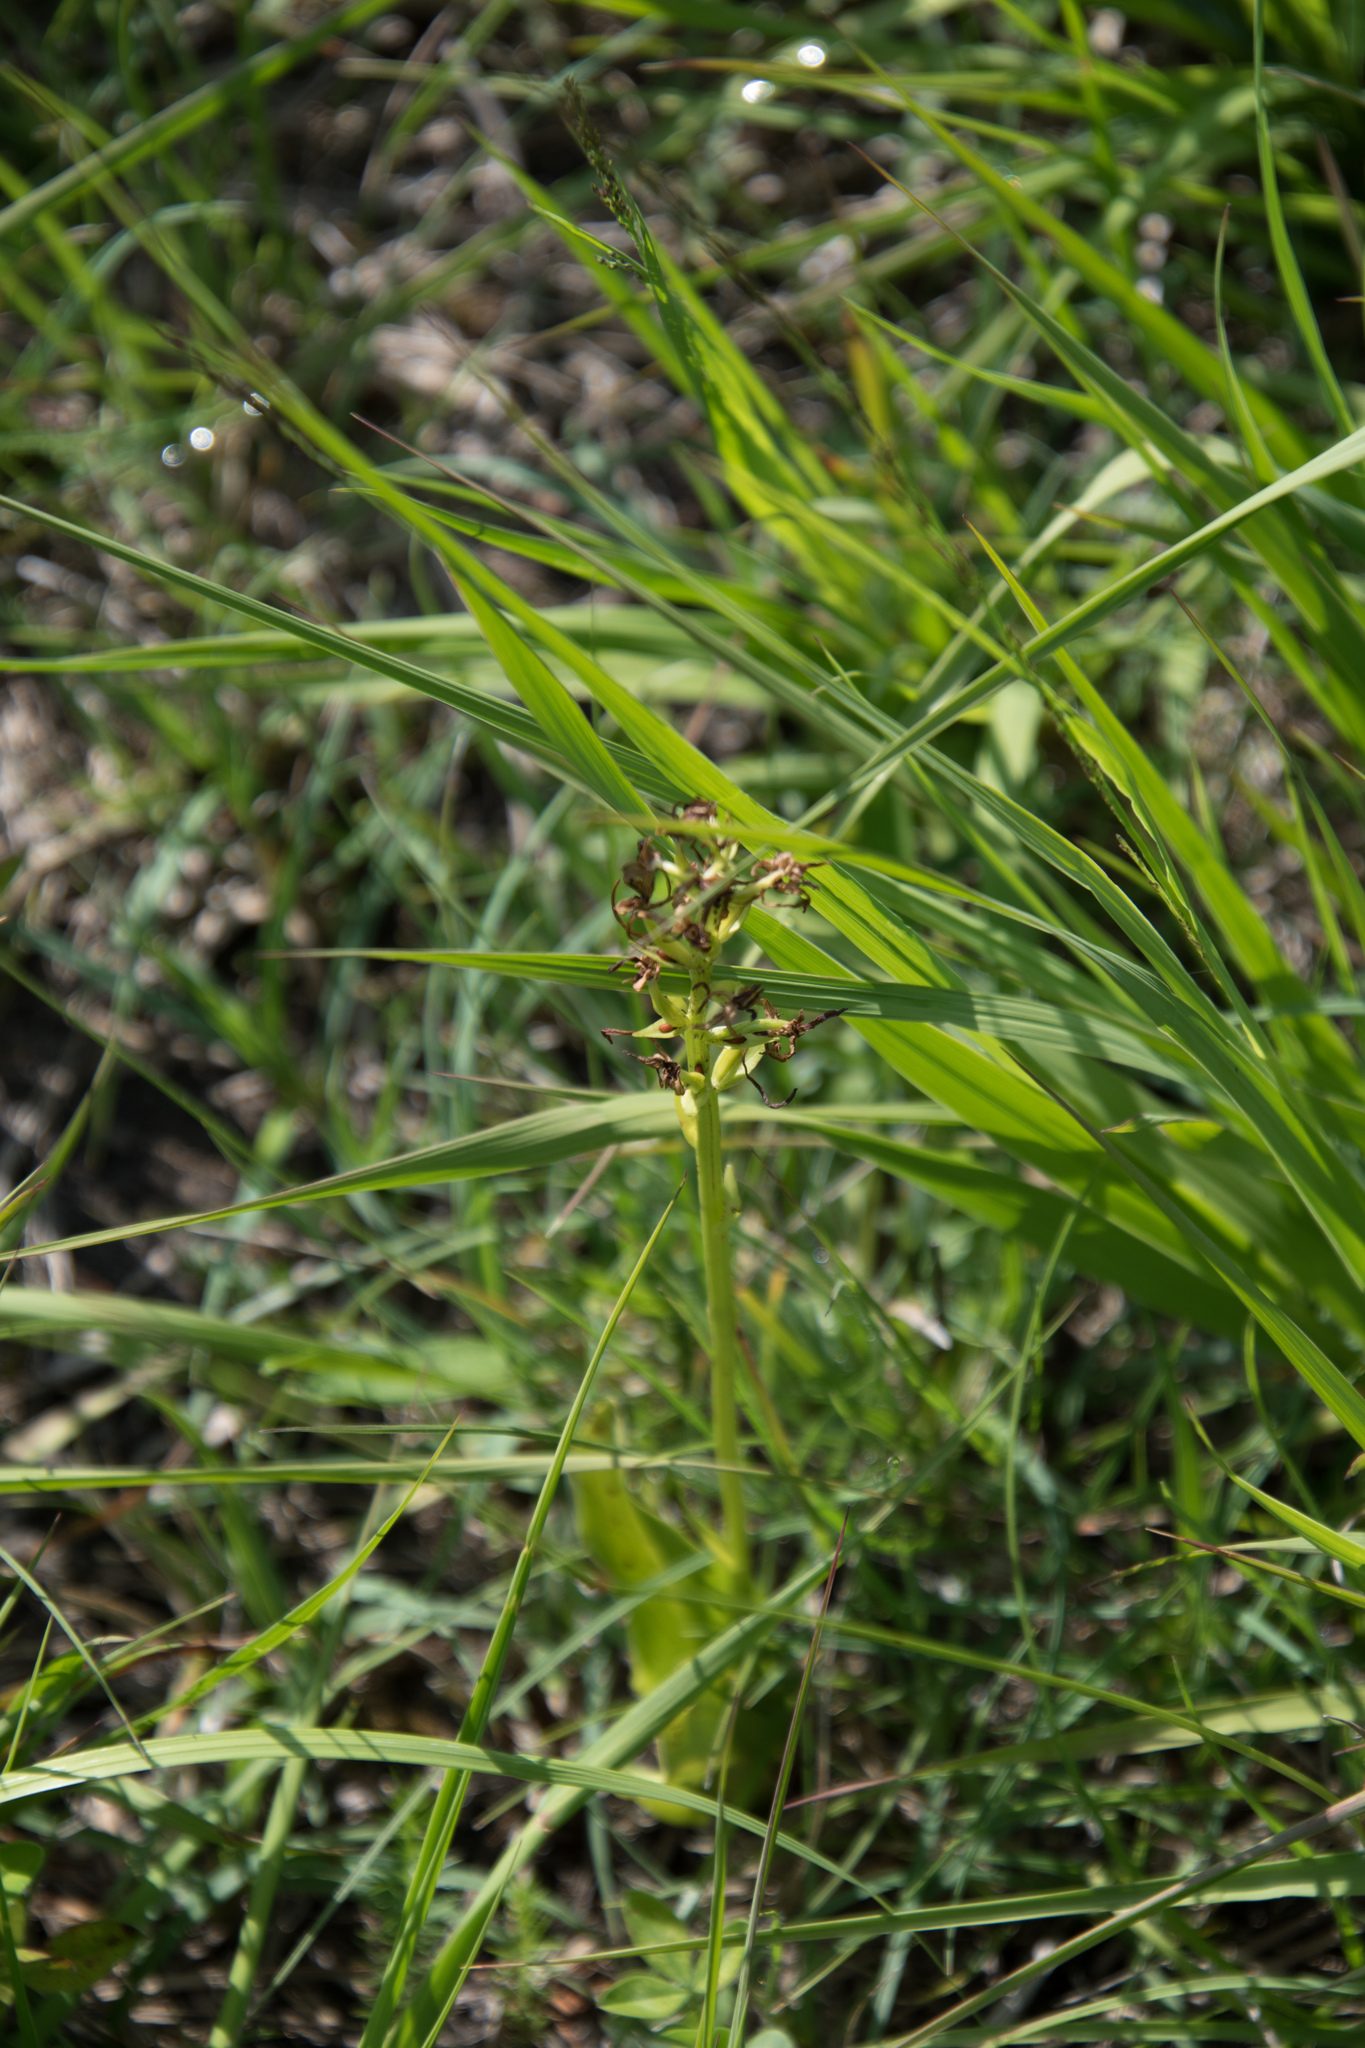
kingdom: Plantae
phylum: Tracheophyta
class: Liliopsida
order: Asparagales
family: Orchidaceae
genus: Platanthera
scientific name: Platanthera bifolia
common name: Lesser butterfly-orchid
